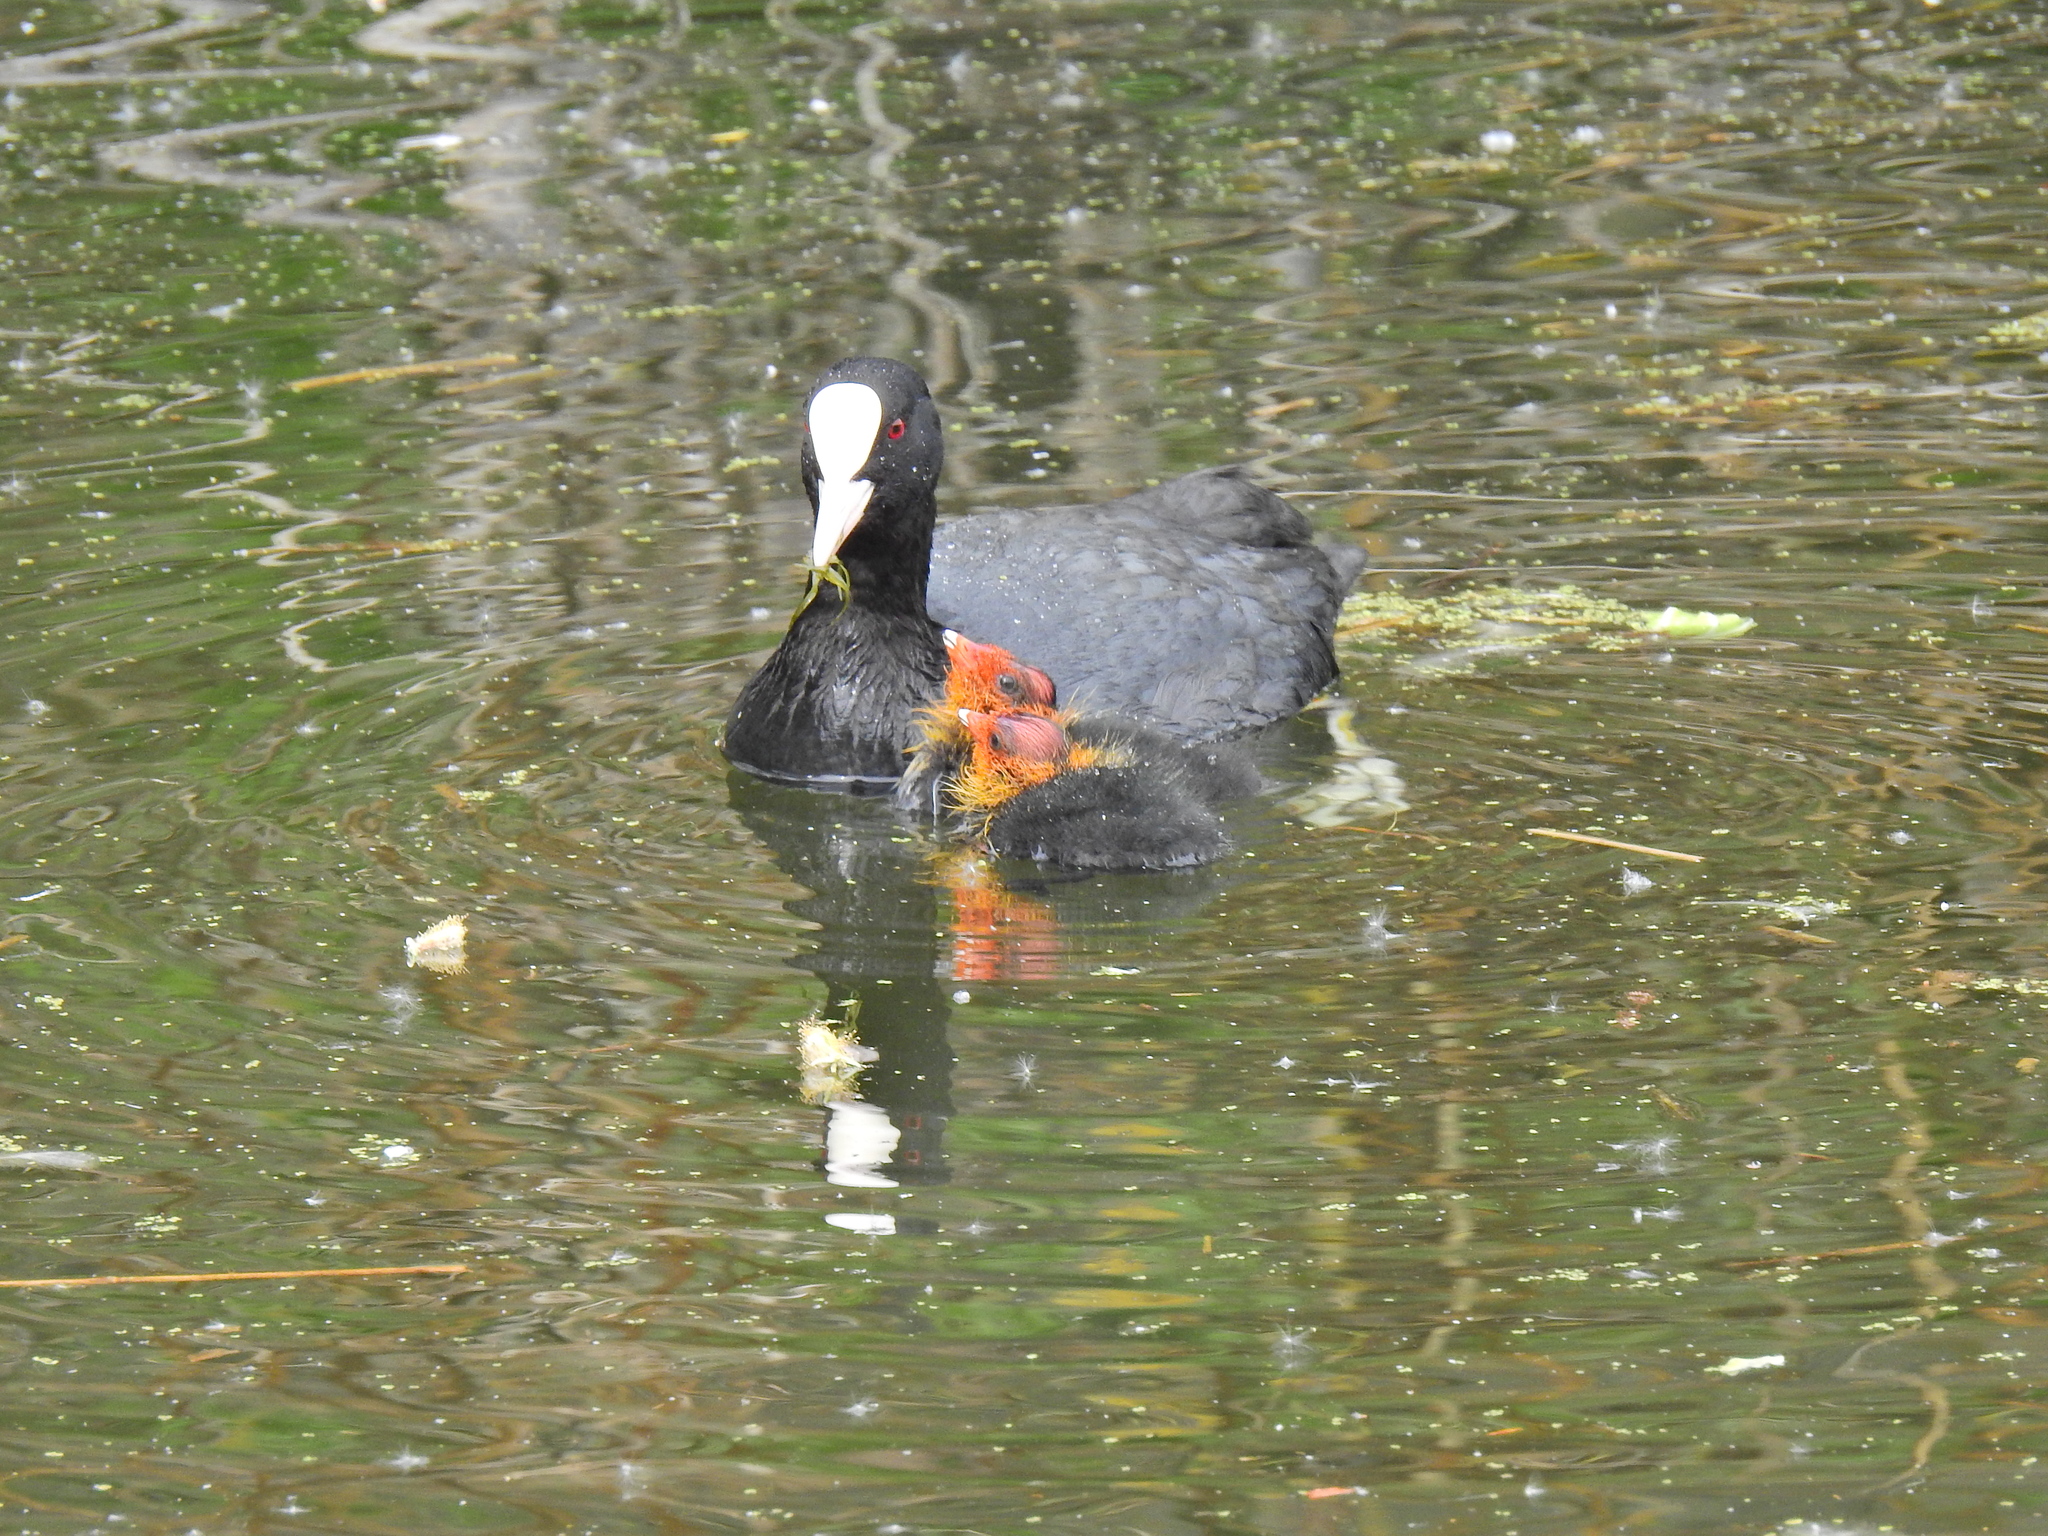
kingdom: Animalia
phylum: Chordata
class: Aves
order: Gruiformes
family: Rallidae
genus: Fulica
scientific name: Fulica atra
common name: Eurasian coot
